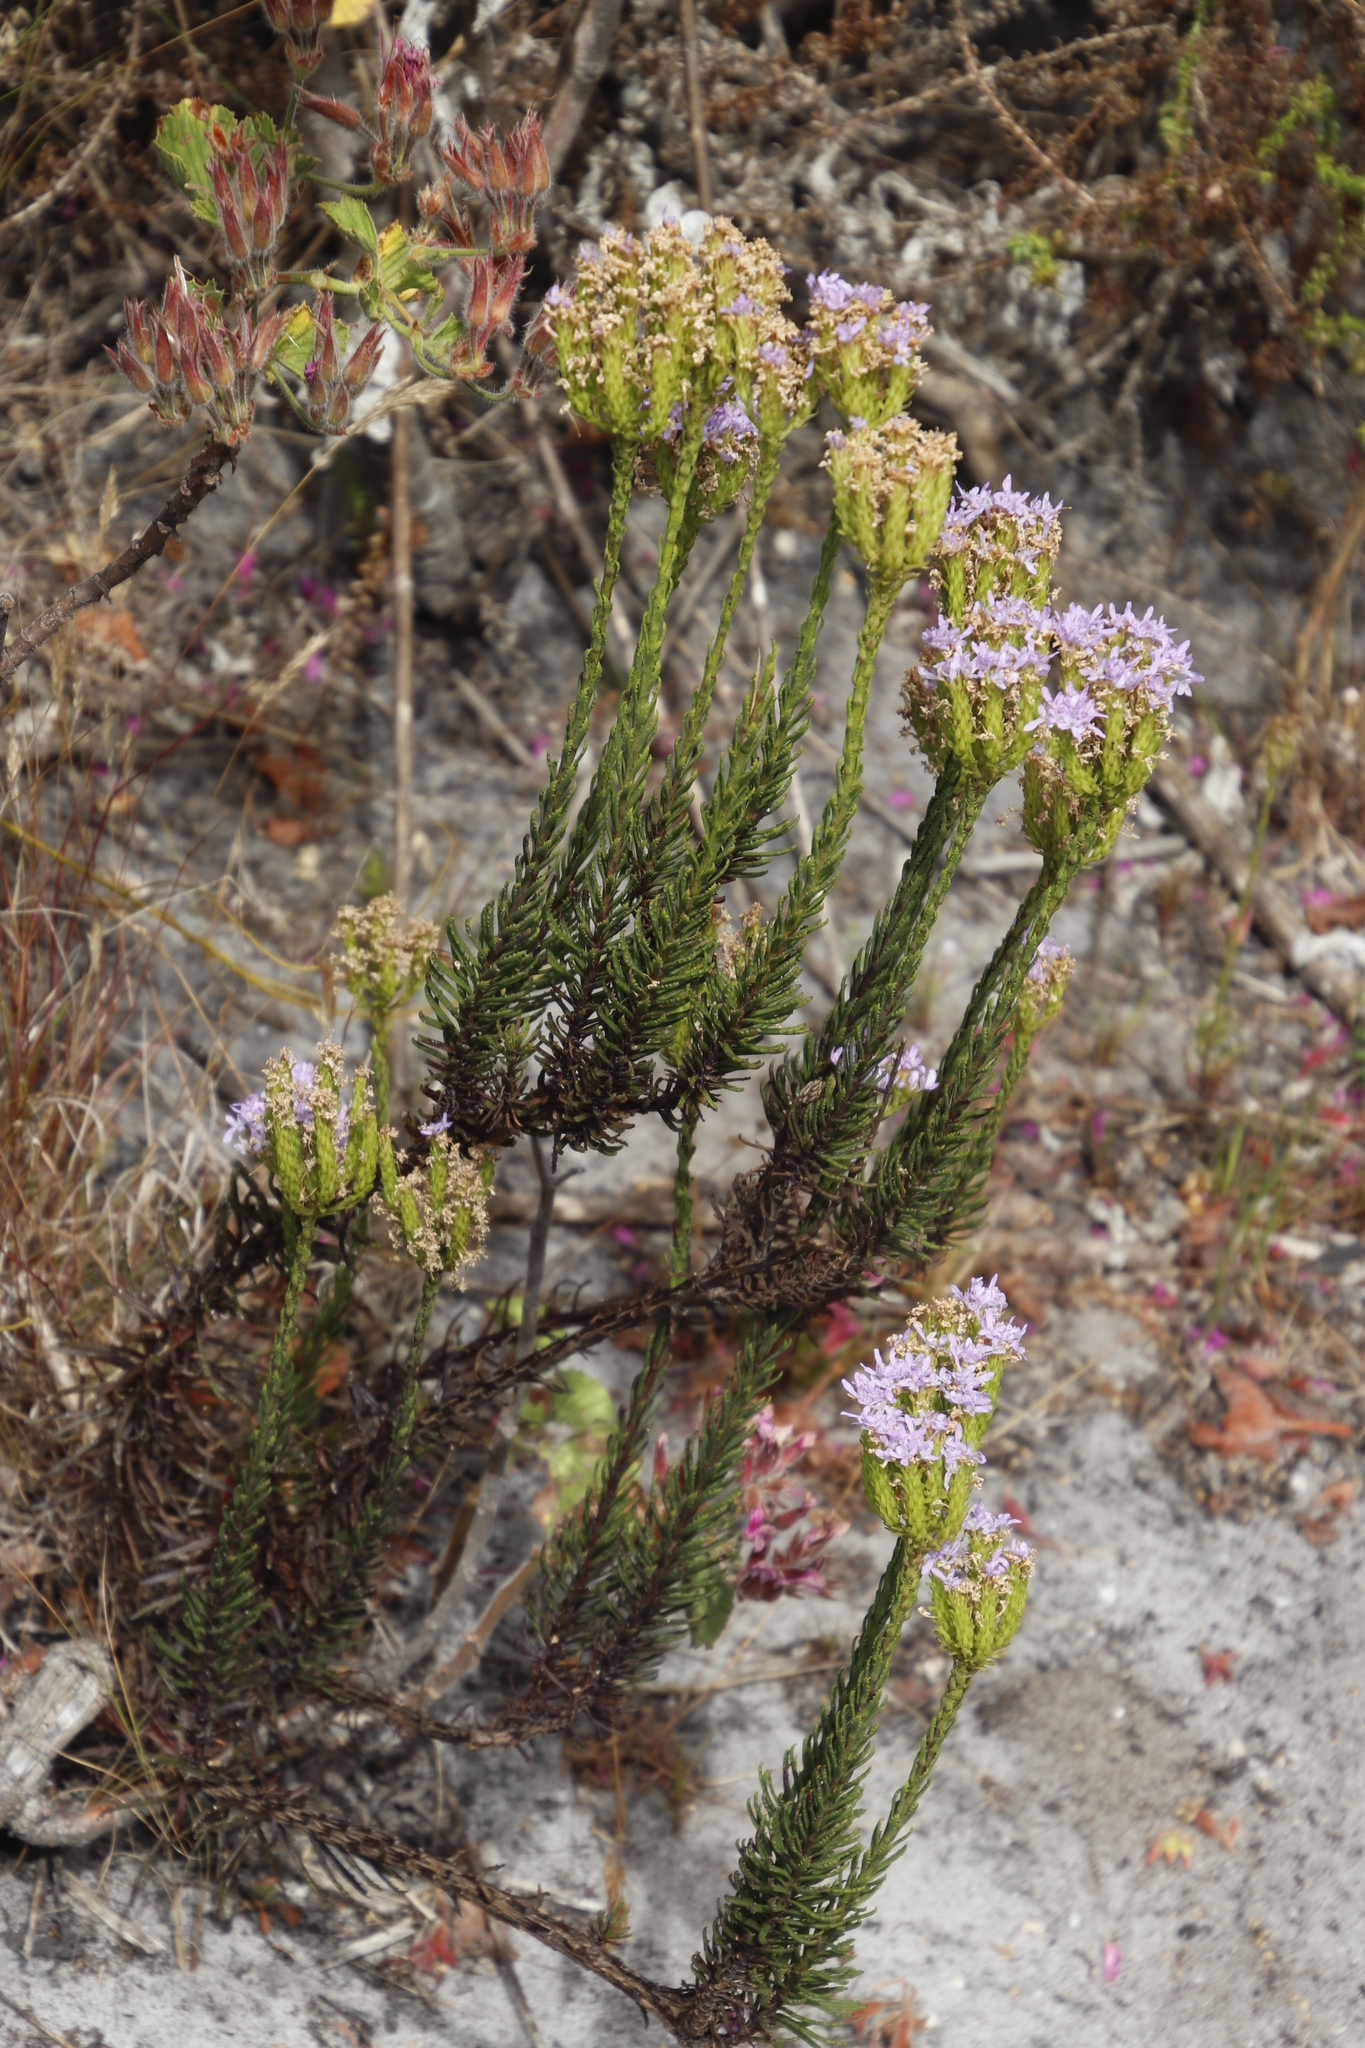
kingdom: Plantae
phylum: Tracheophyta
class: Magnoliopsida
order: Lamiales
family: Scrophulariaceae
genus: Pseudoselago
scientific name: Pseudoselago spuria
